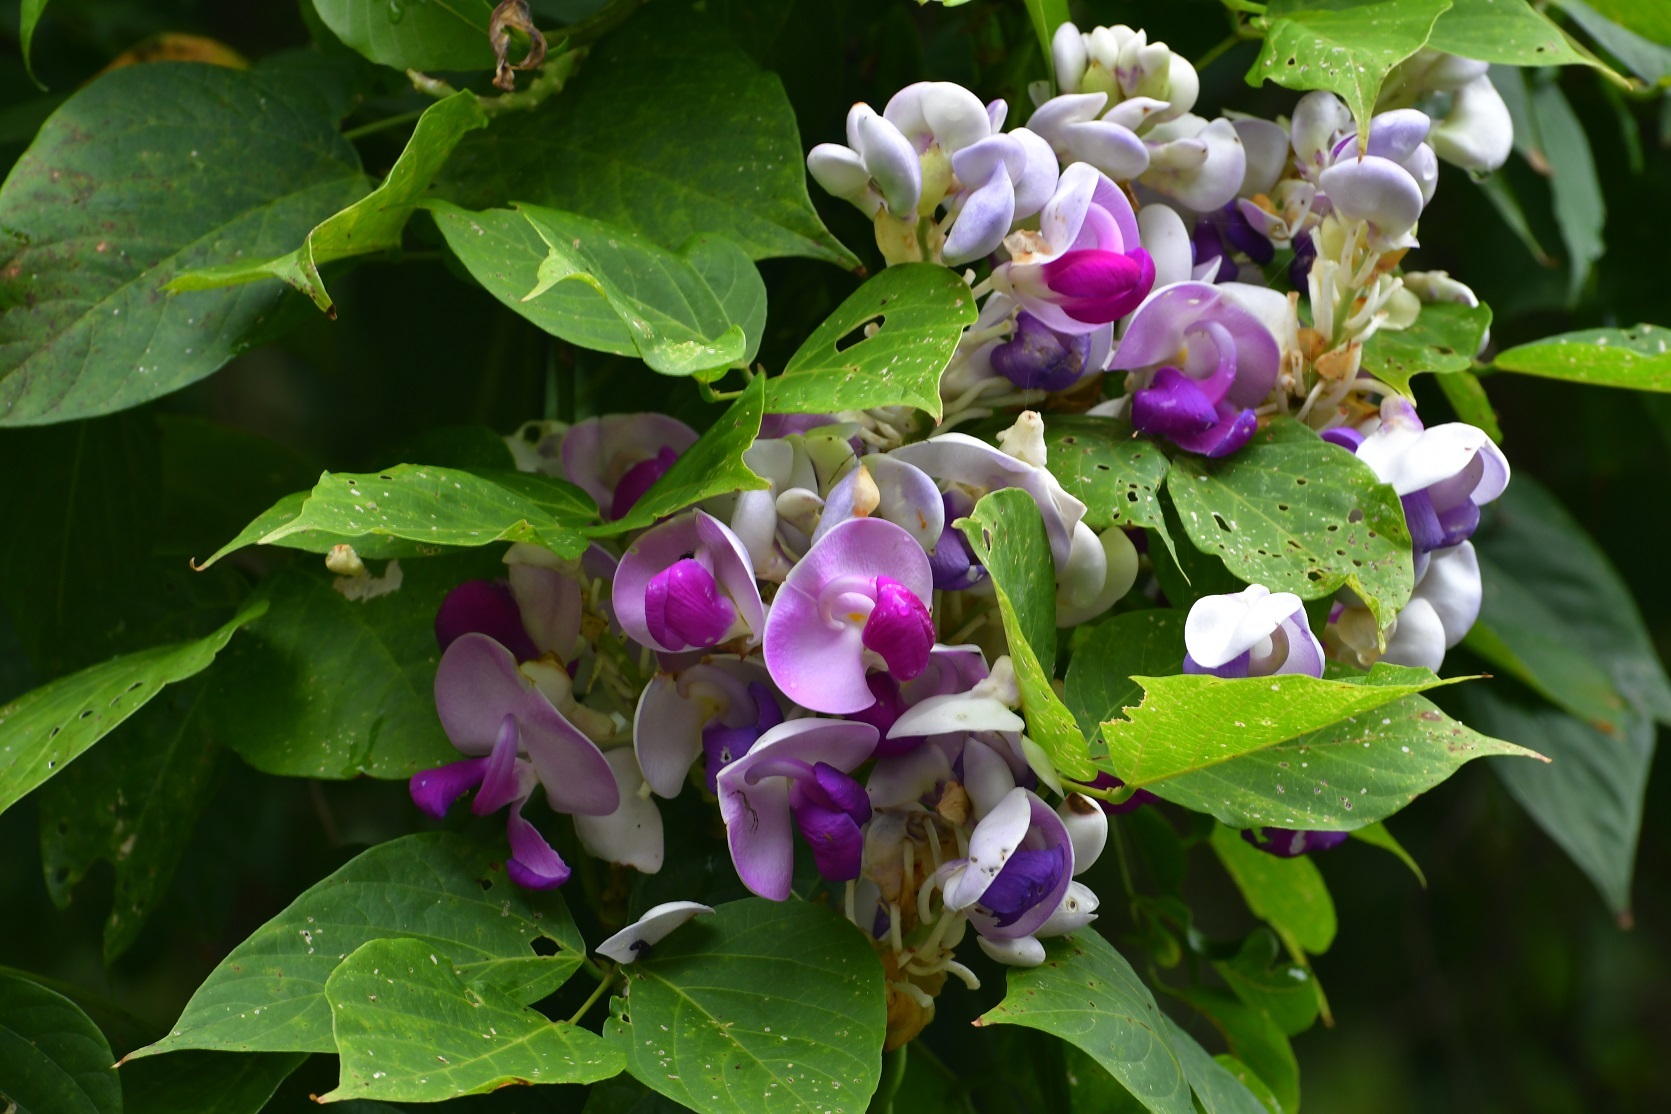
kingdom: Plantae
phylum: Tracheophyta
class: Magnoliopsida
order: Fabales
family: Fabaceae
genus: Ramirezella
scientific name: Ramirezella penduliflora
